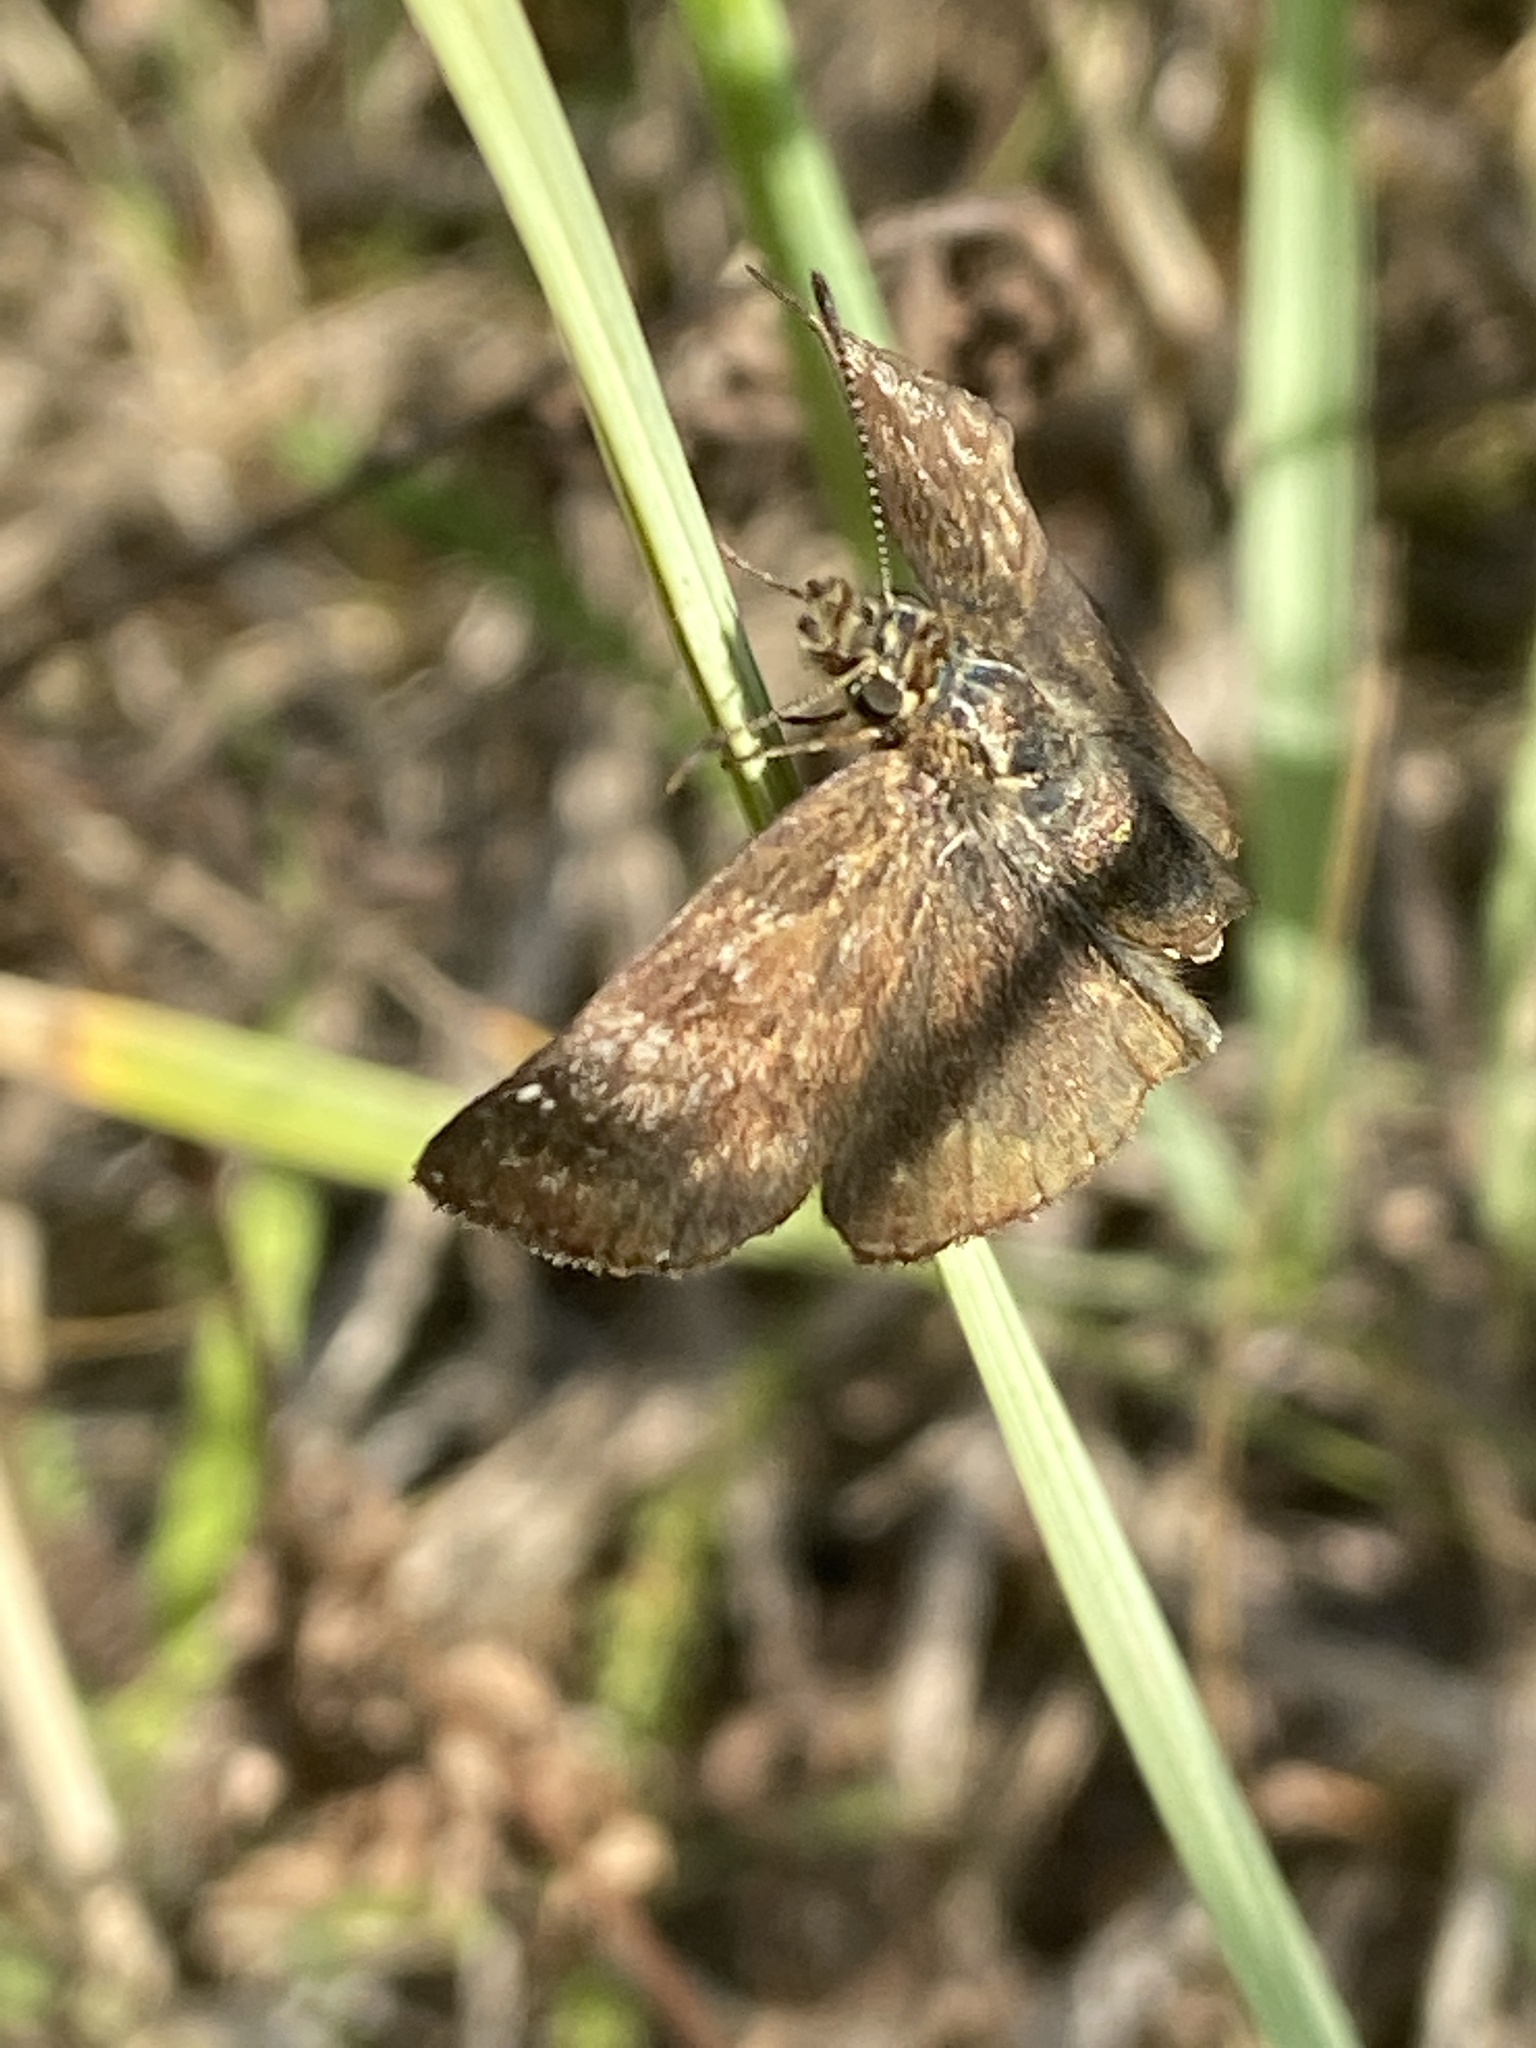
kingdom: Animalia
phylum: Arthropoda
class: Insecta
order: Lepidoptera
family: Hesperiidae
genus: Erynnis
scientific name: Erynnis tages
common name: Dingy skipper
